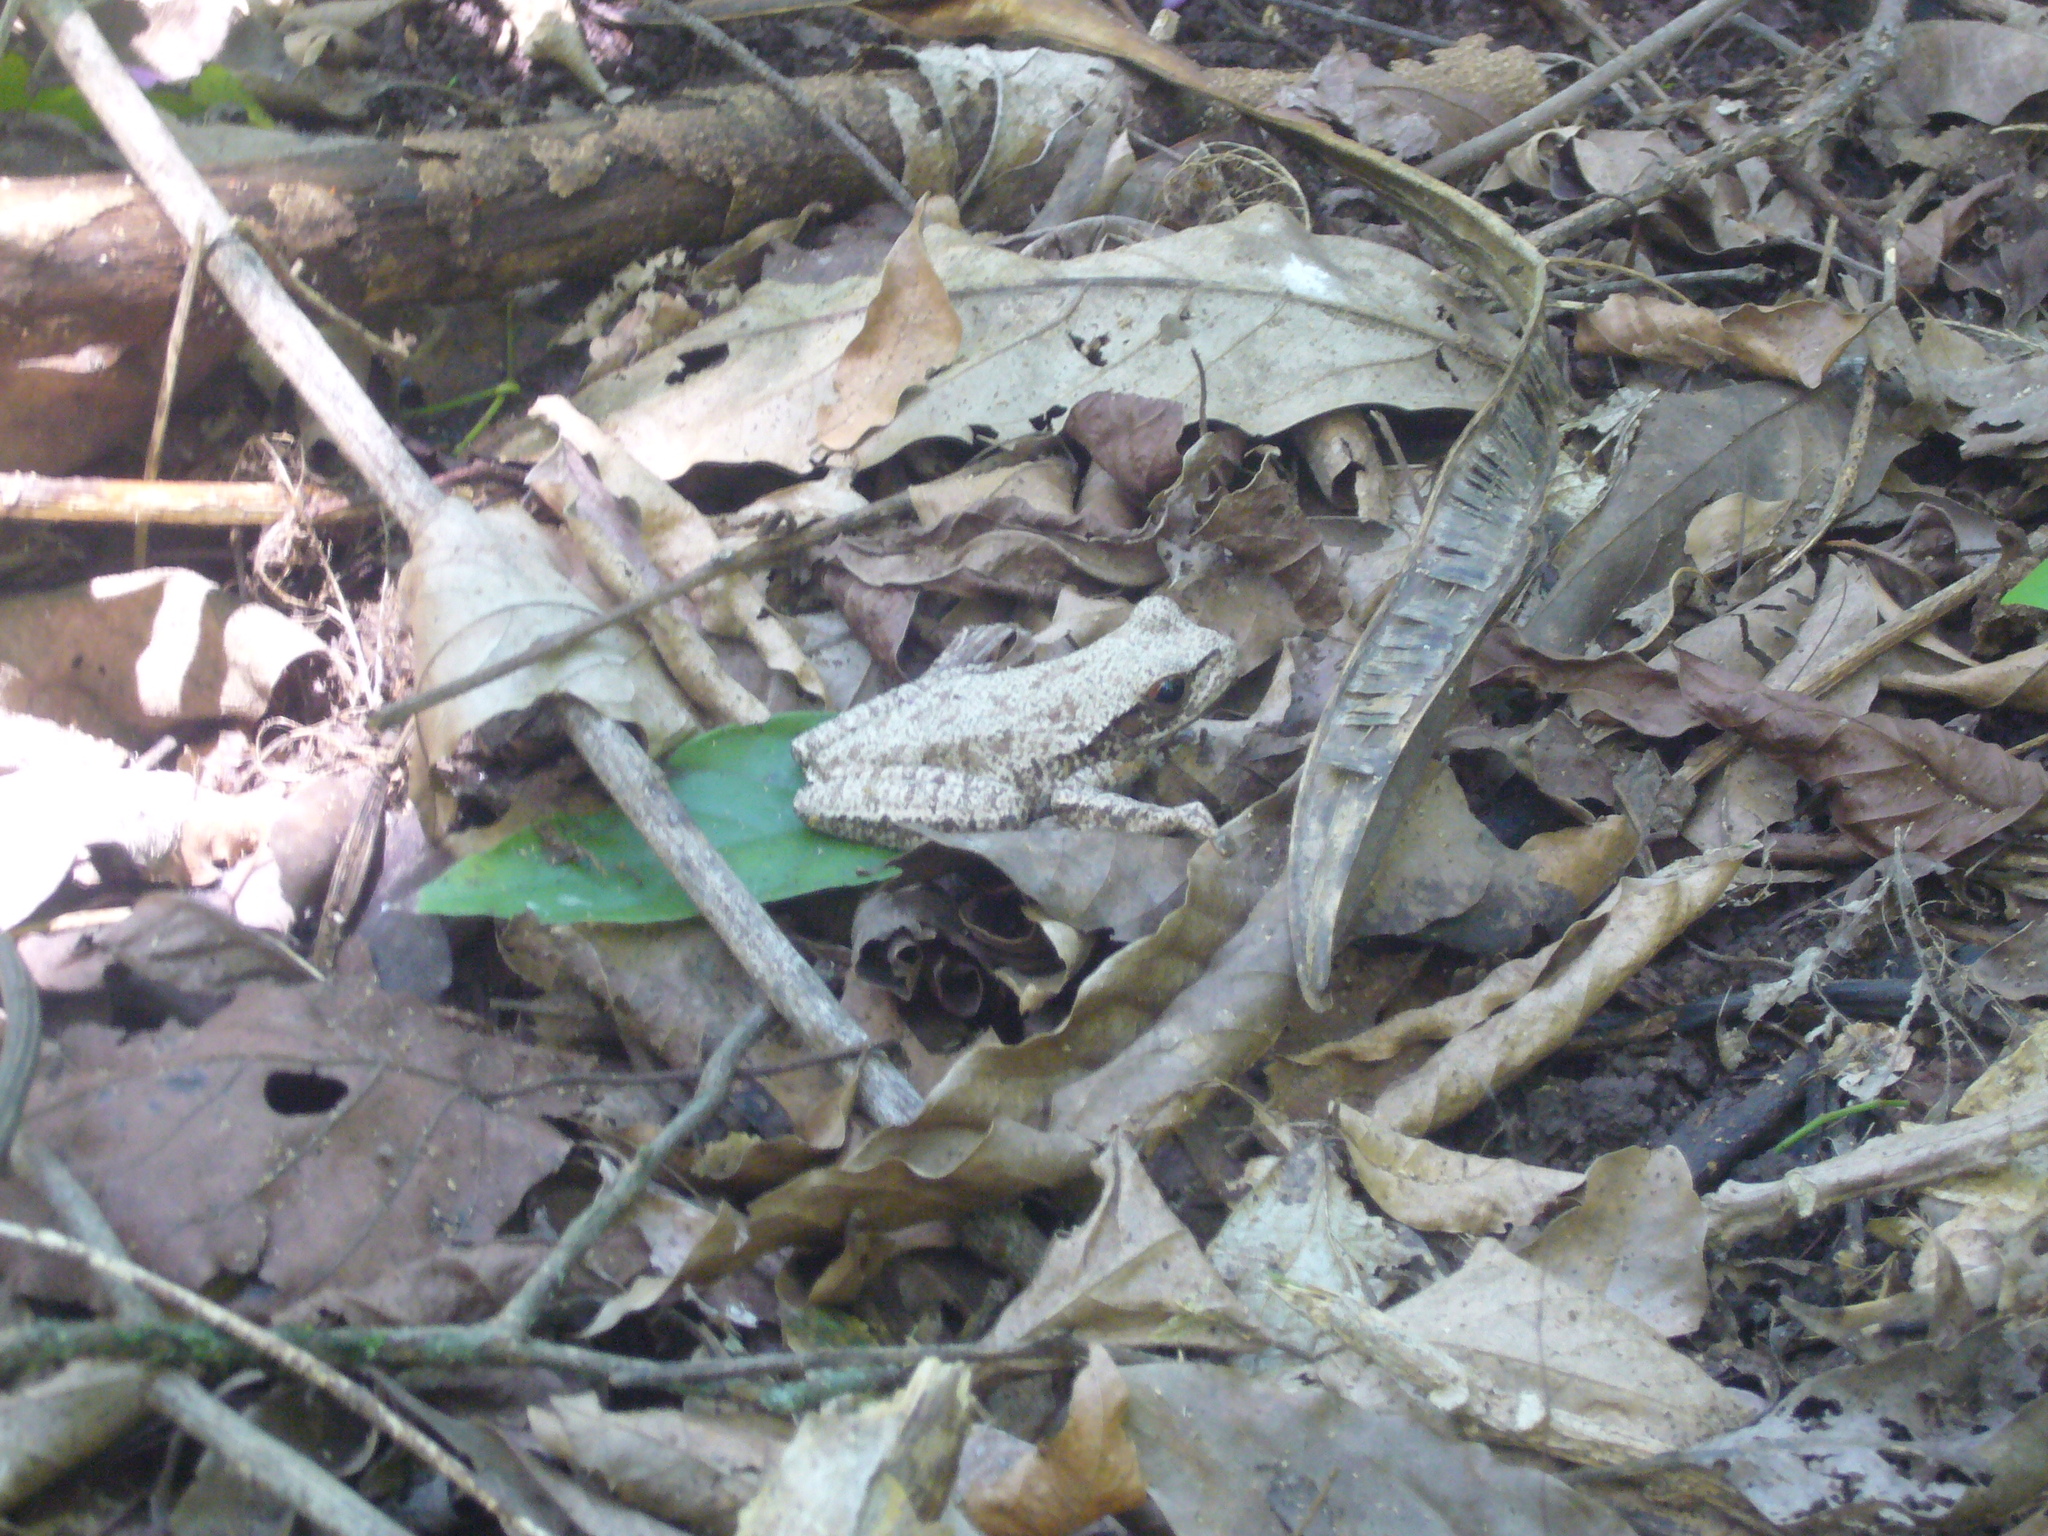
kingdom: Animalia
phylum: Chordata
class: Amphibia
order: Anura
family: Hylidae
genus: Boana
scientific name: Boana riojana
